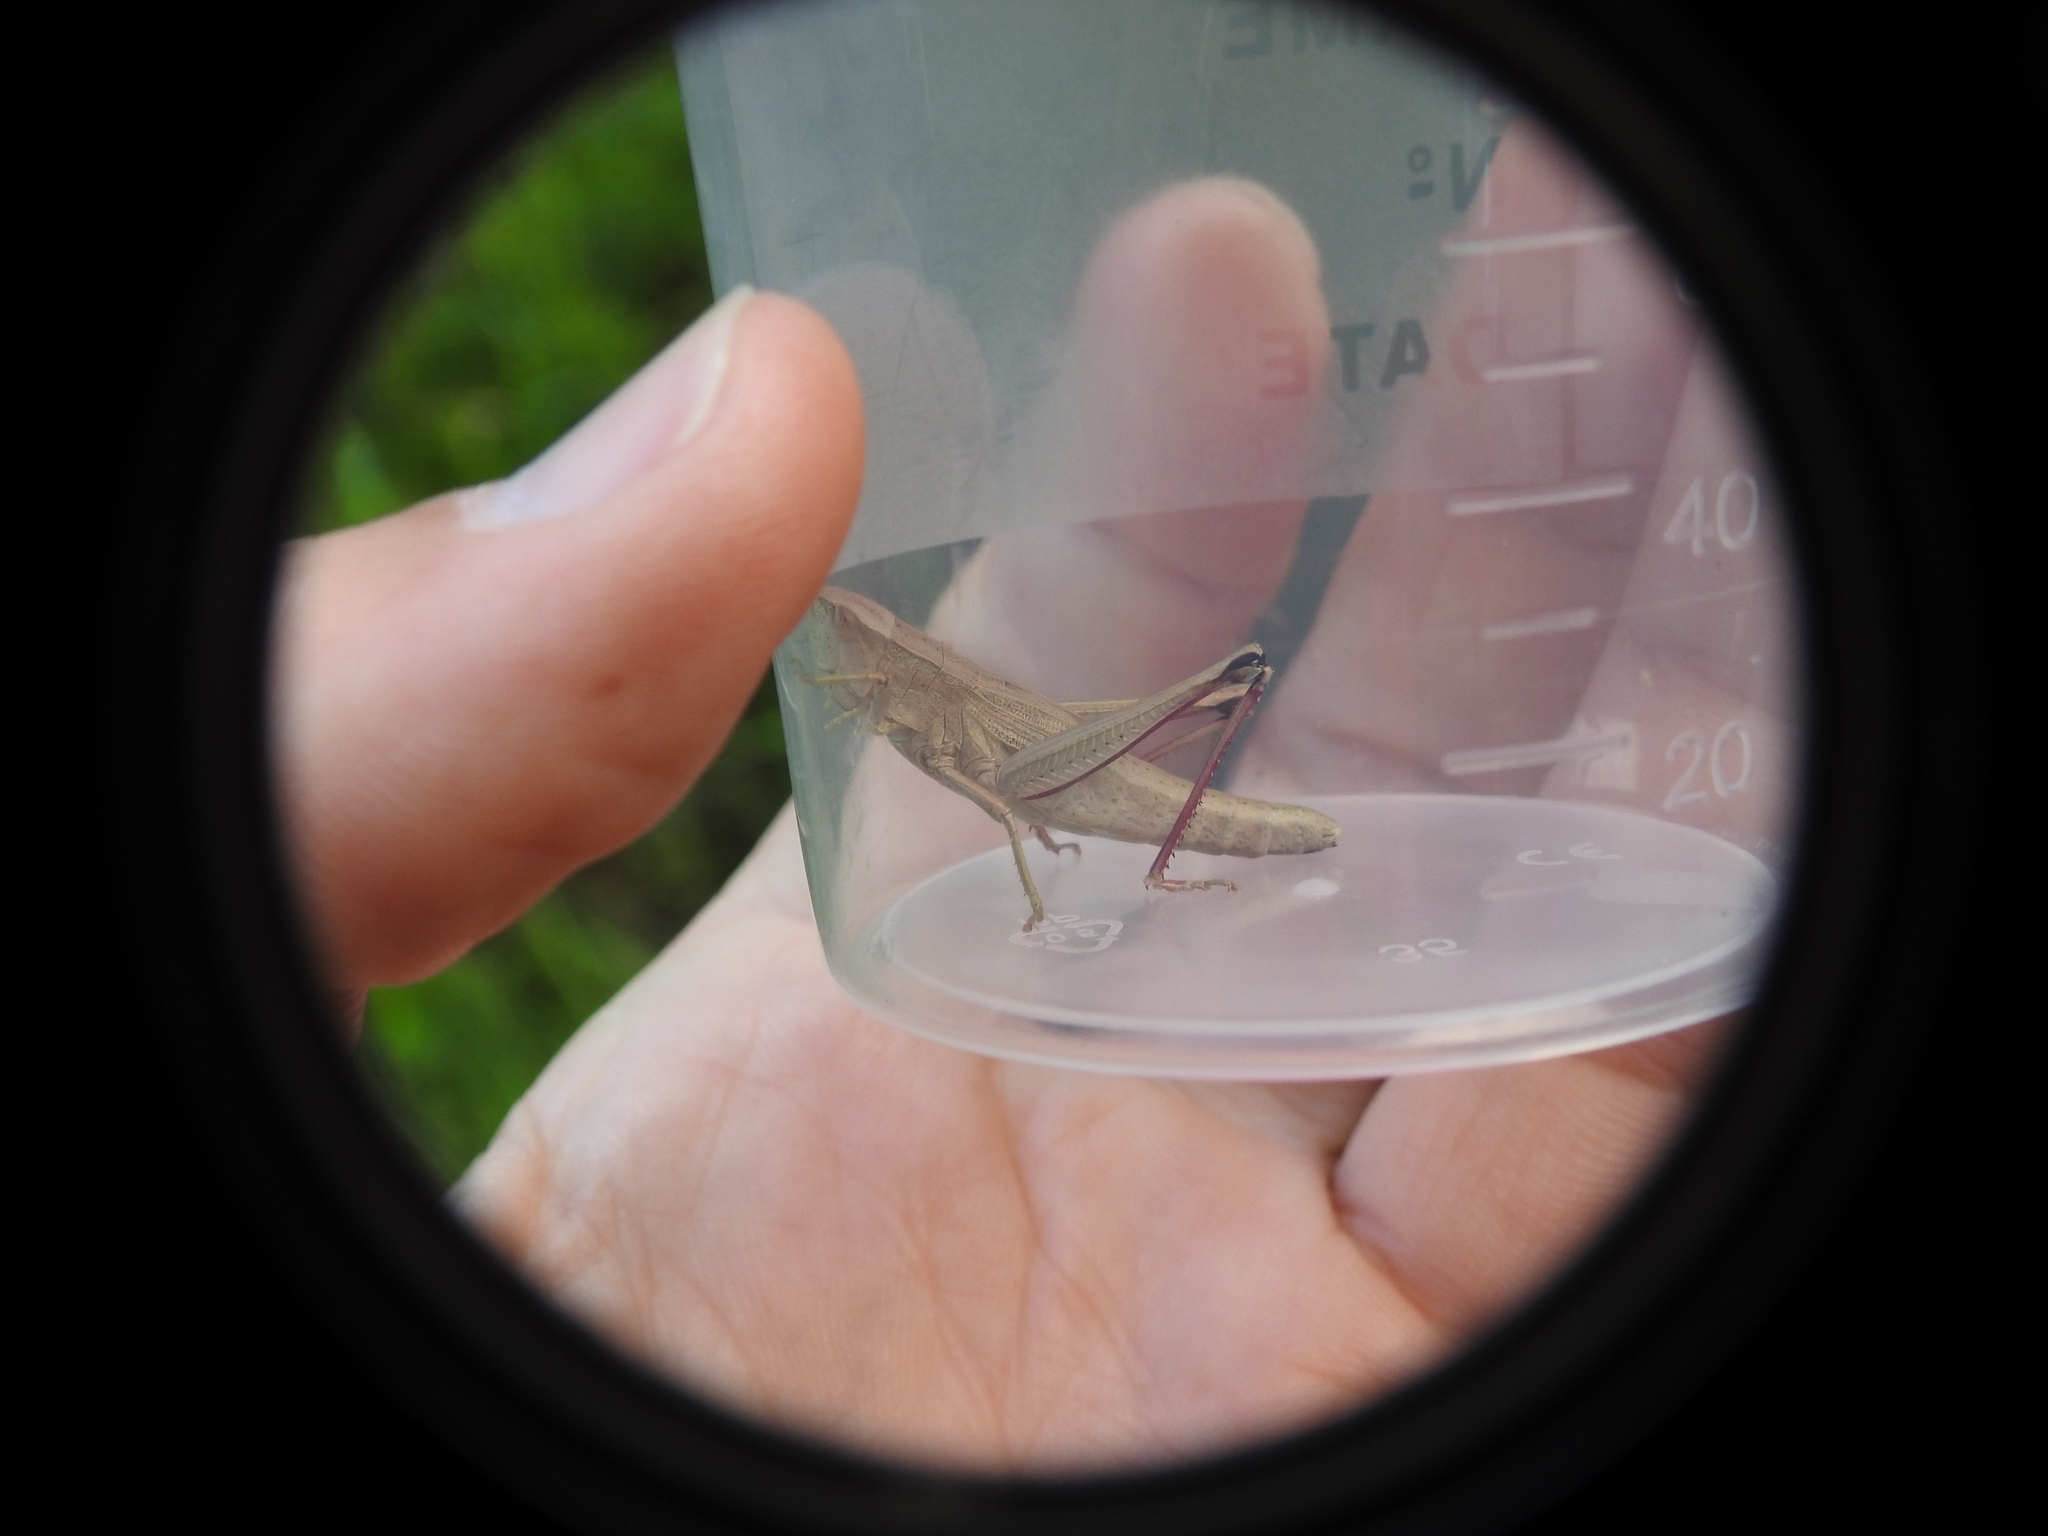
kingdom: Animalia
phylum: Arthropoda
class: Insecta
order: Orthoptera
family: Acrididae
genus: Chrysochraon
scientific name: Chrysochraon dispar
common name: Large gold grasshopper
